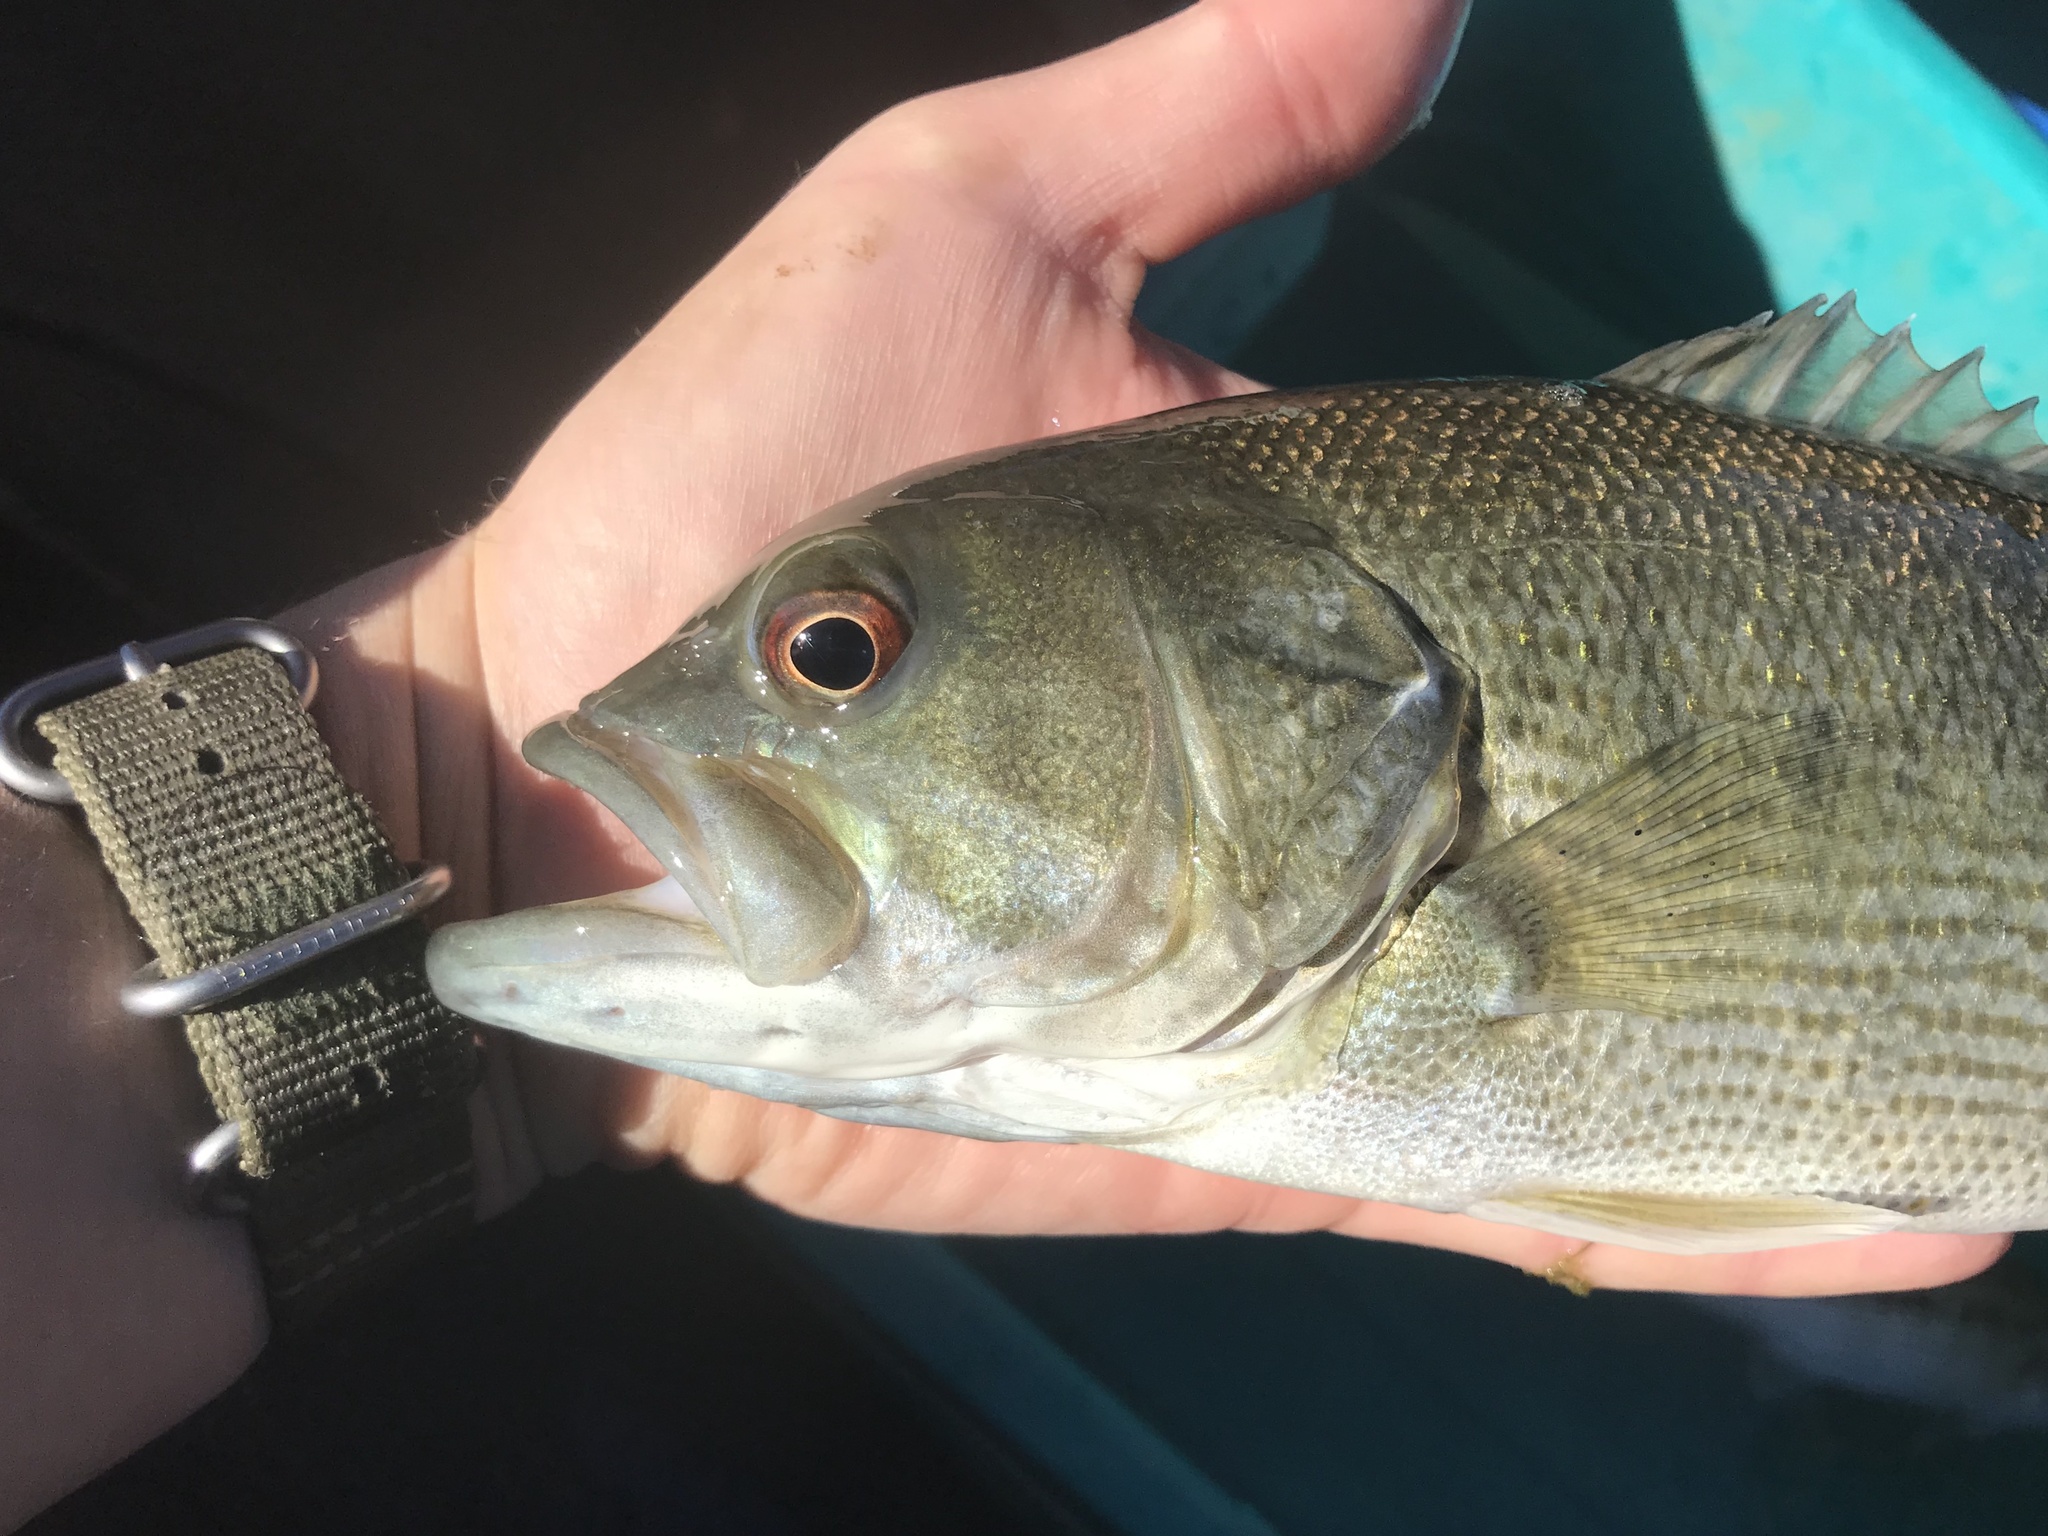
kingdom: Animalia
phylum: Chordata
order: Perciformes
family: Centrarchidae
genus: Micropterus
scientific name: Micropterus treculii
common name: Guadalupe bass
